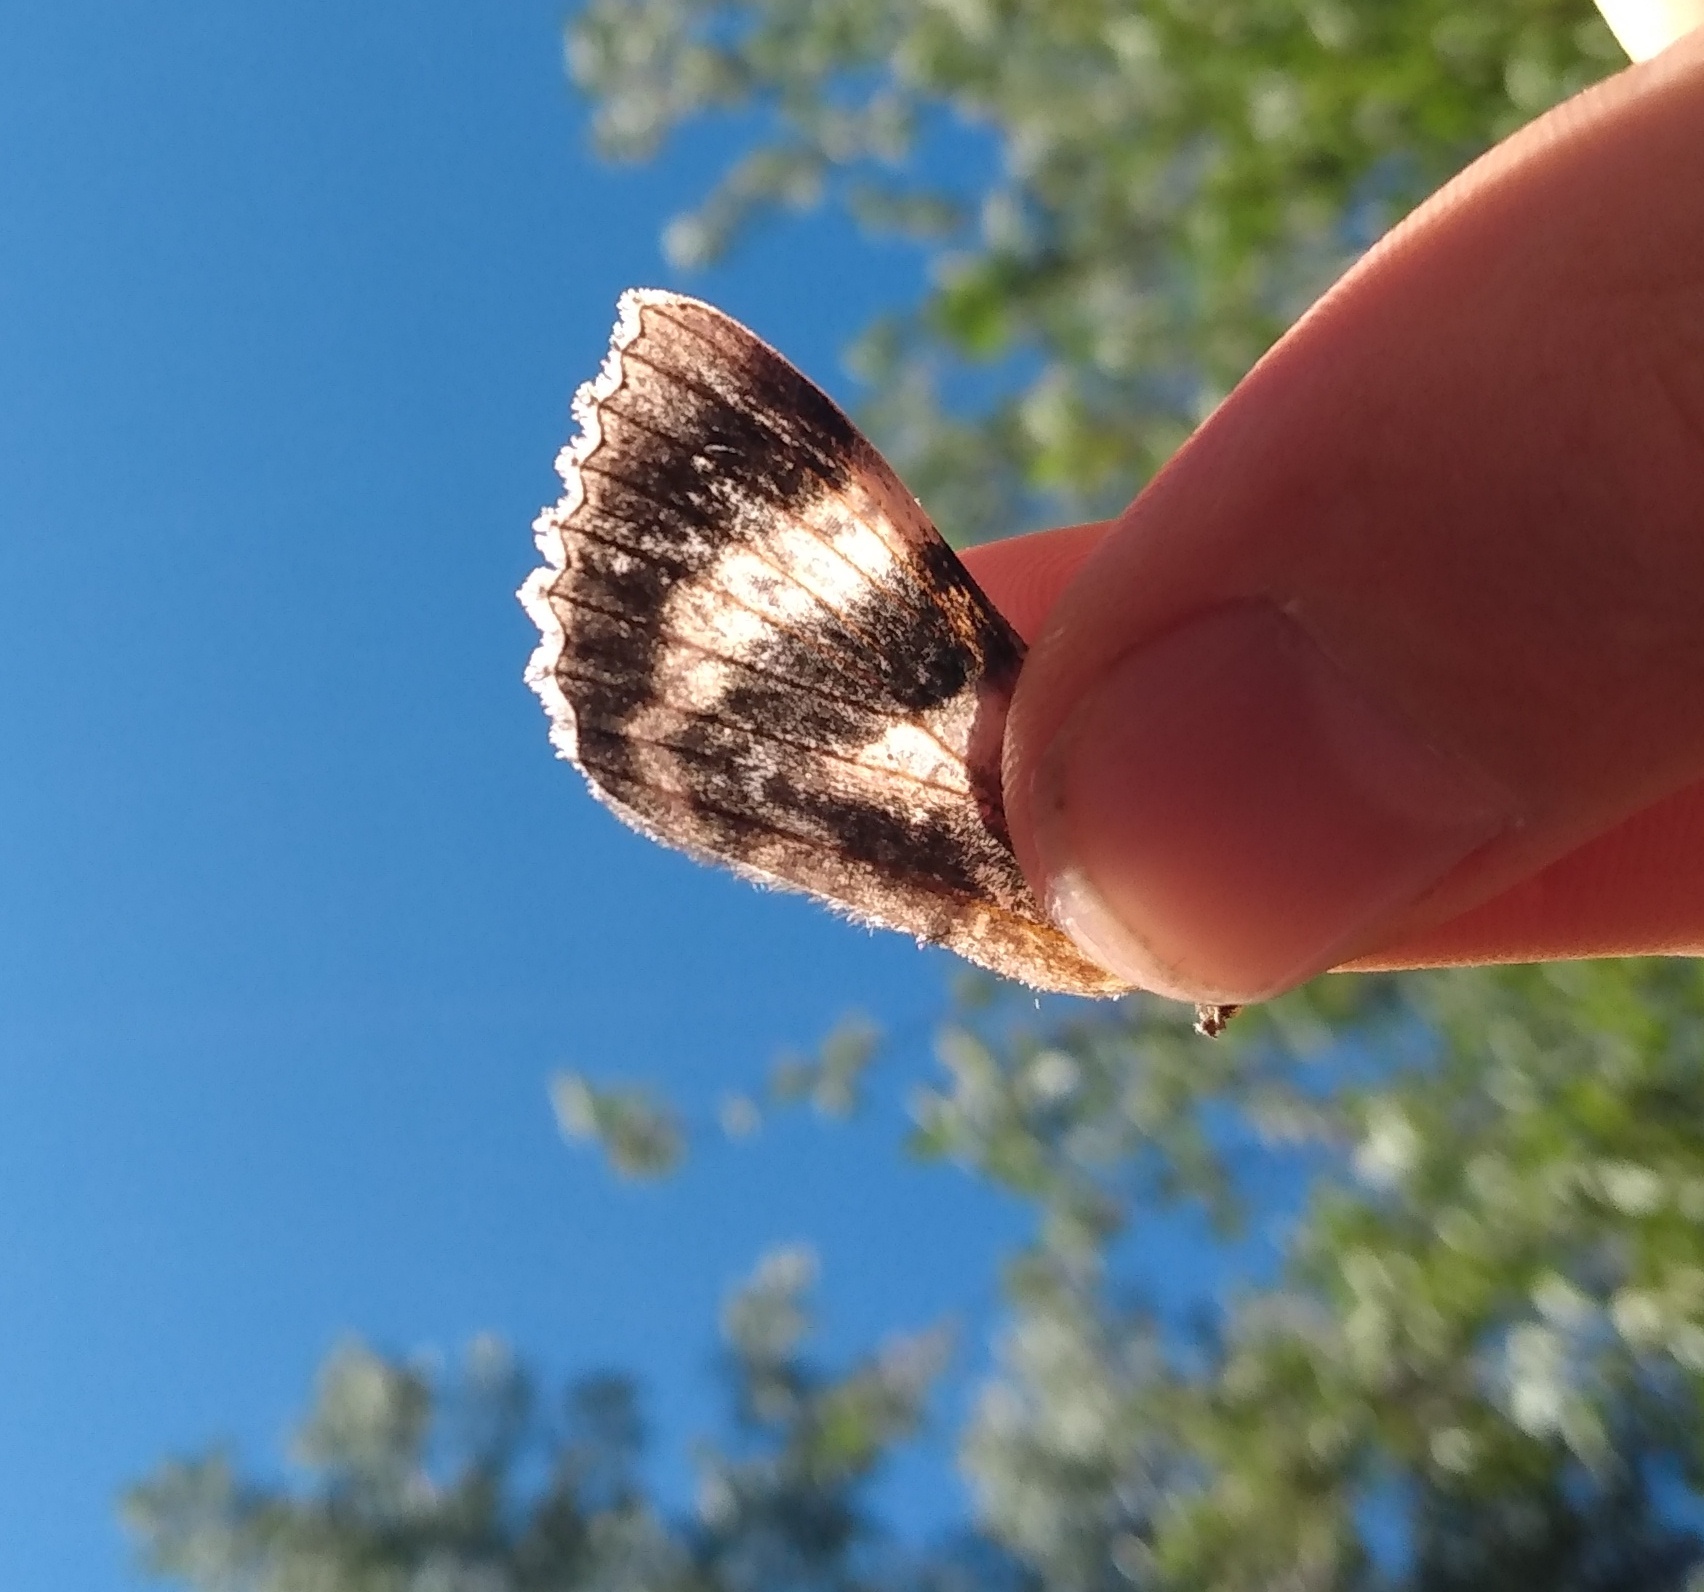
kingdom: Animalia
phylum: Arthropoda
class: Insecta
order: Lepidoptera
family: Erebidae
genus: Catocala
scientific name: Catocala relicta
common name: White underwing
